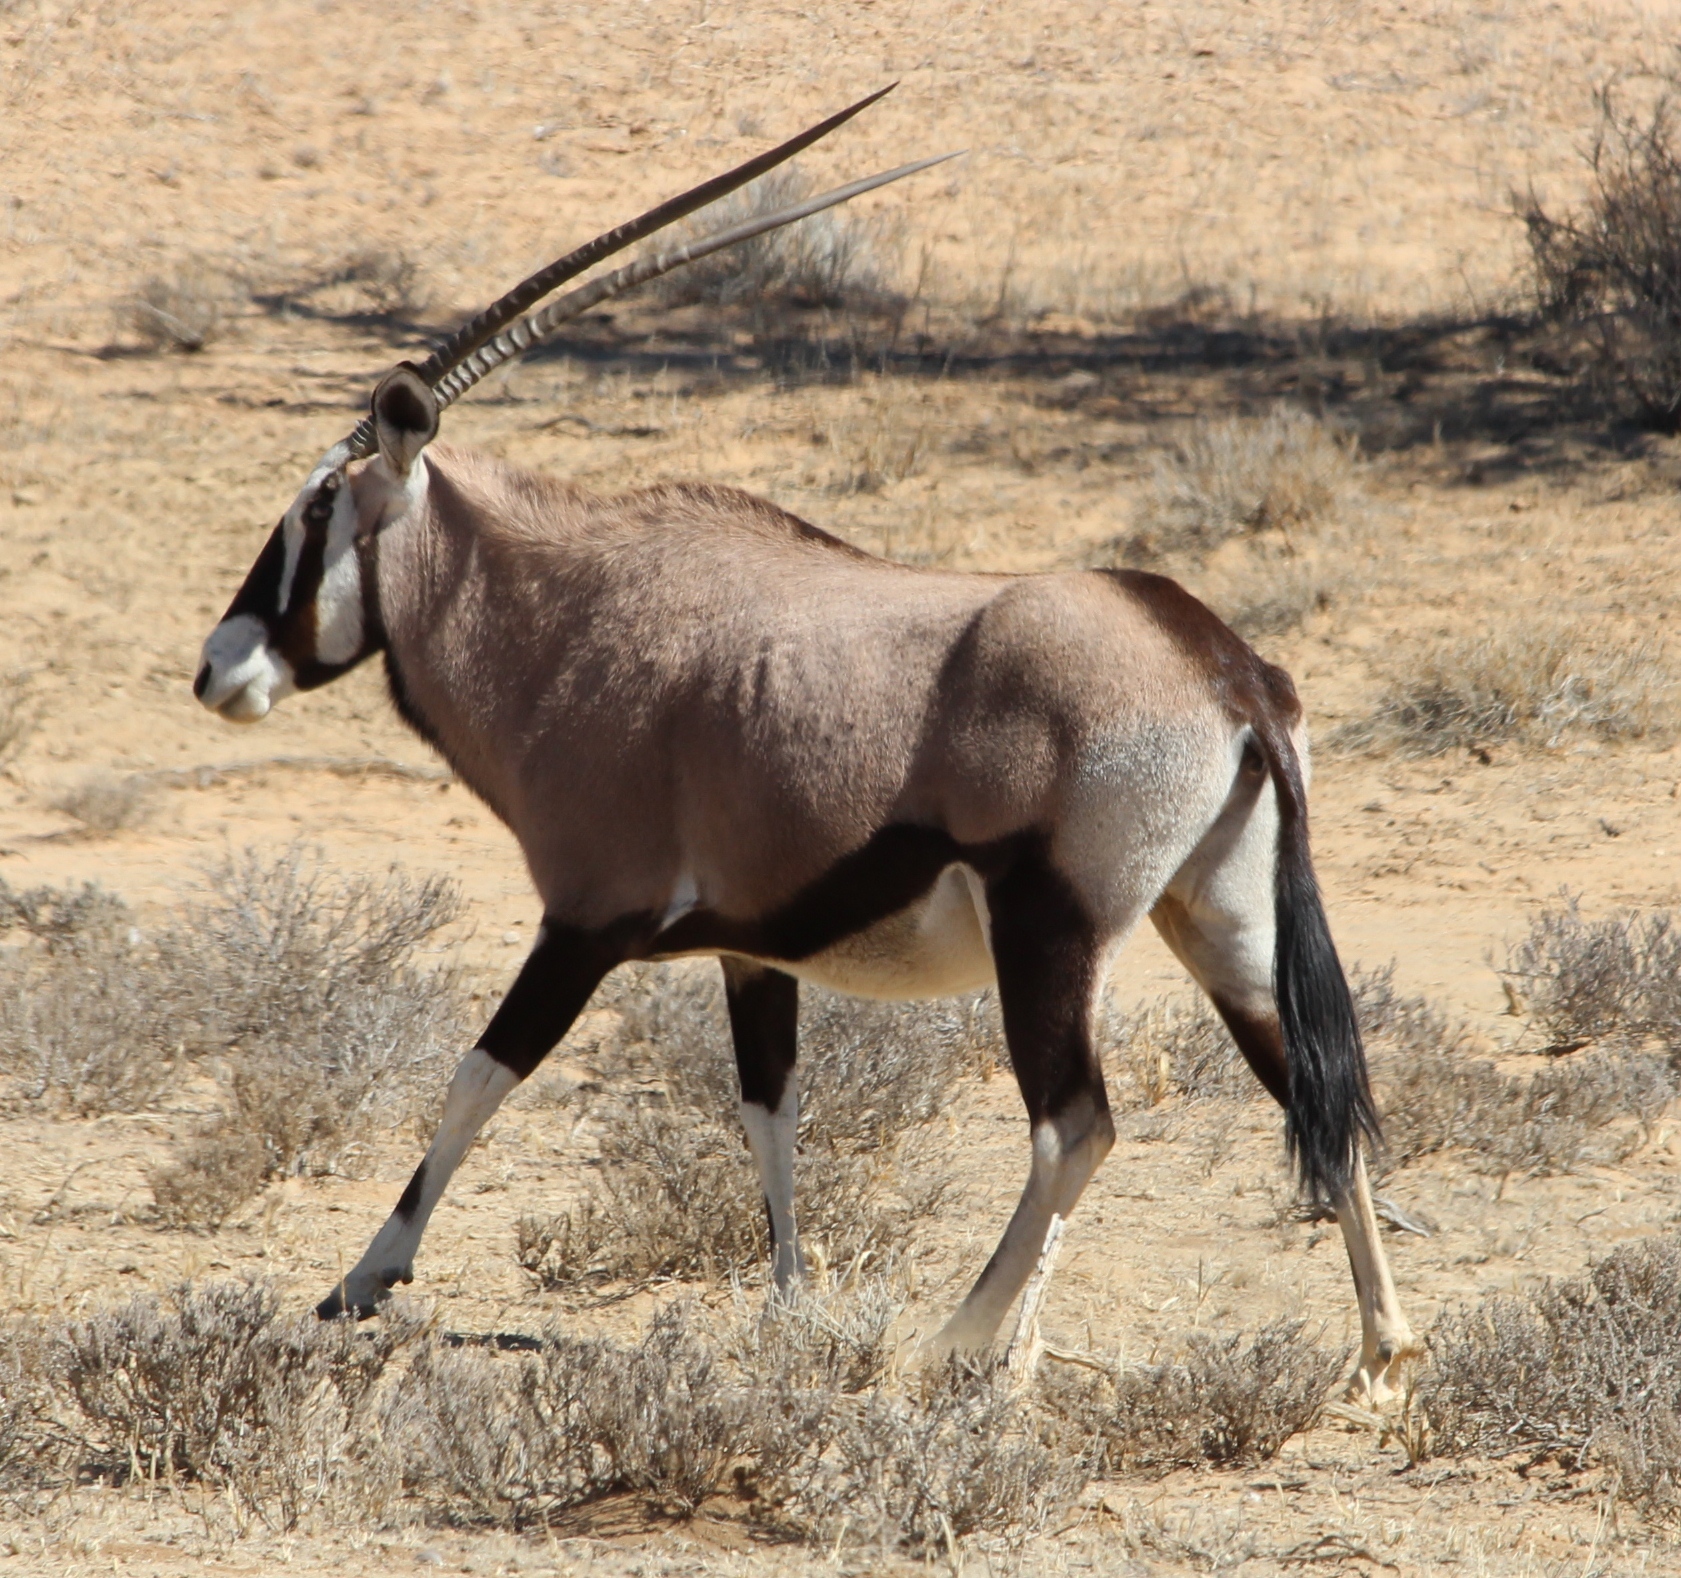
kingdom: Animalia
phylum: Chordata
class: Mammalia
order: Artiodactyla
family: Bovidae
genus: Oryx
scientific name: Oryx gazella
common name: Gemsbok
